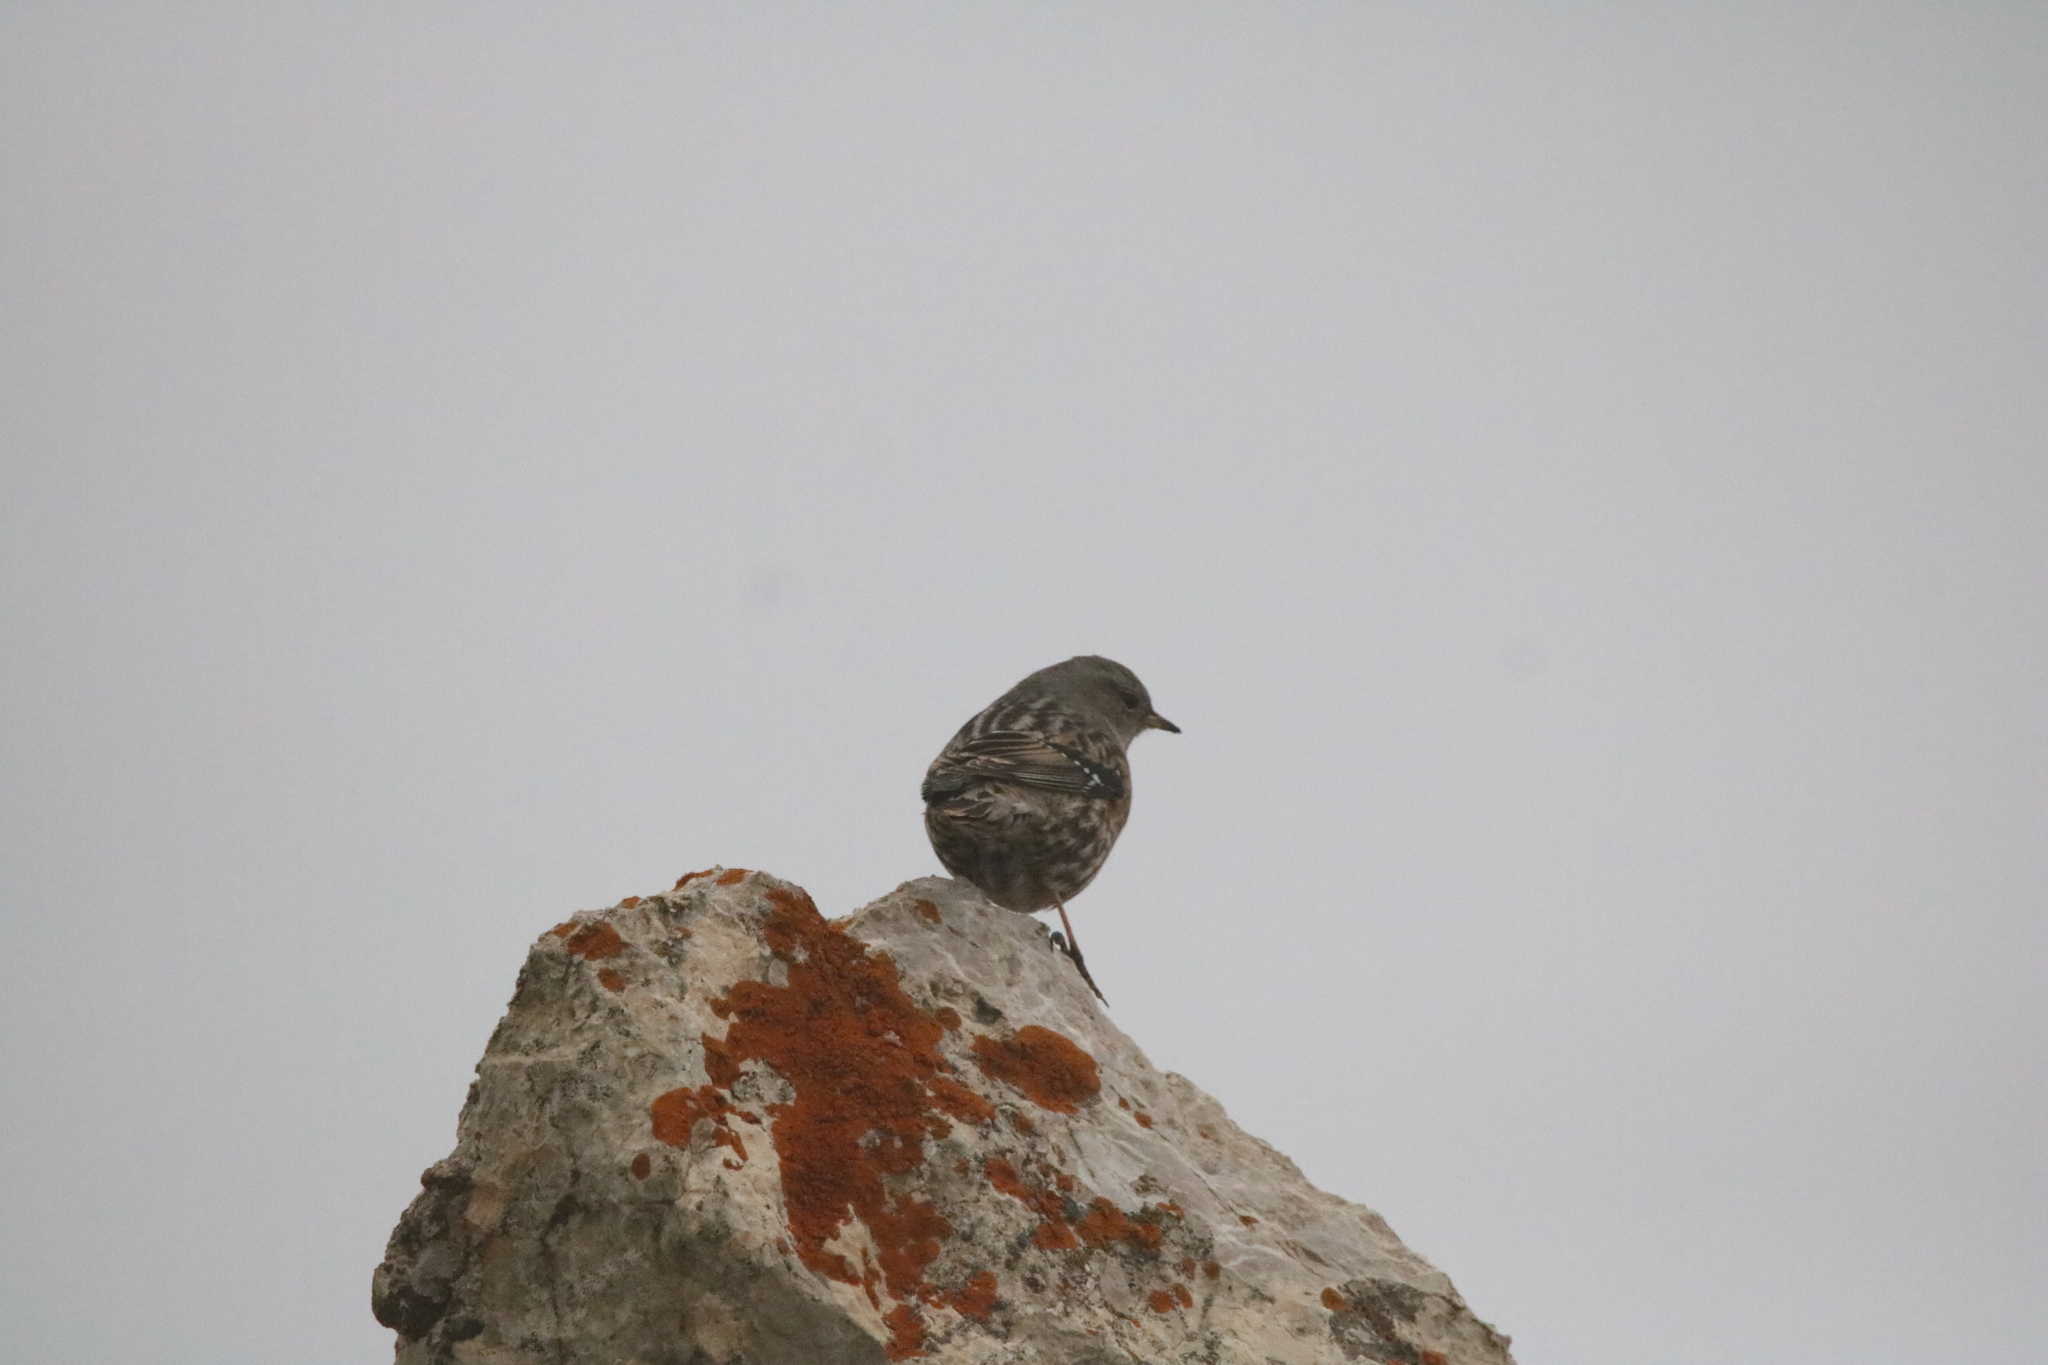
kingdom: Animalia
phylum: Chordata
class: Aves
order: Passeriformes
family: Prunellidae
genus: Prunella
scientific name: Prunella collaris
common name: Alpine accentor
